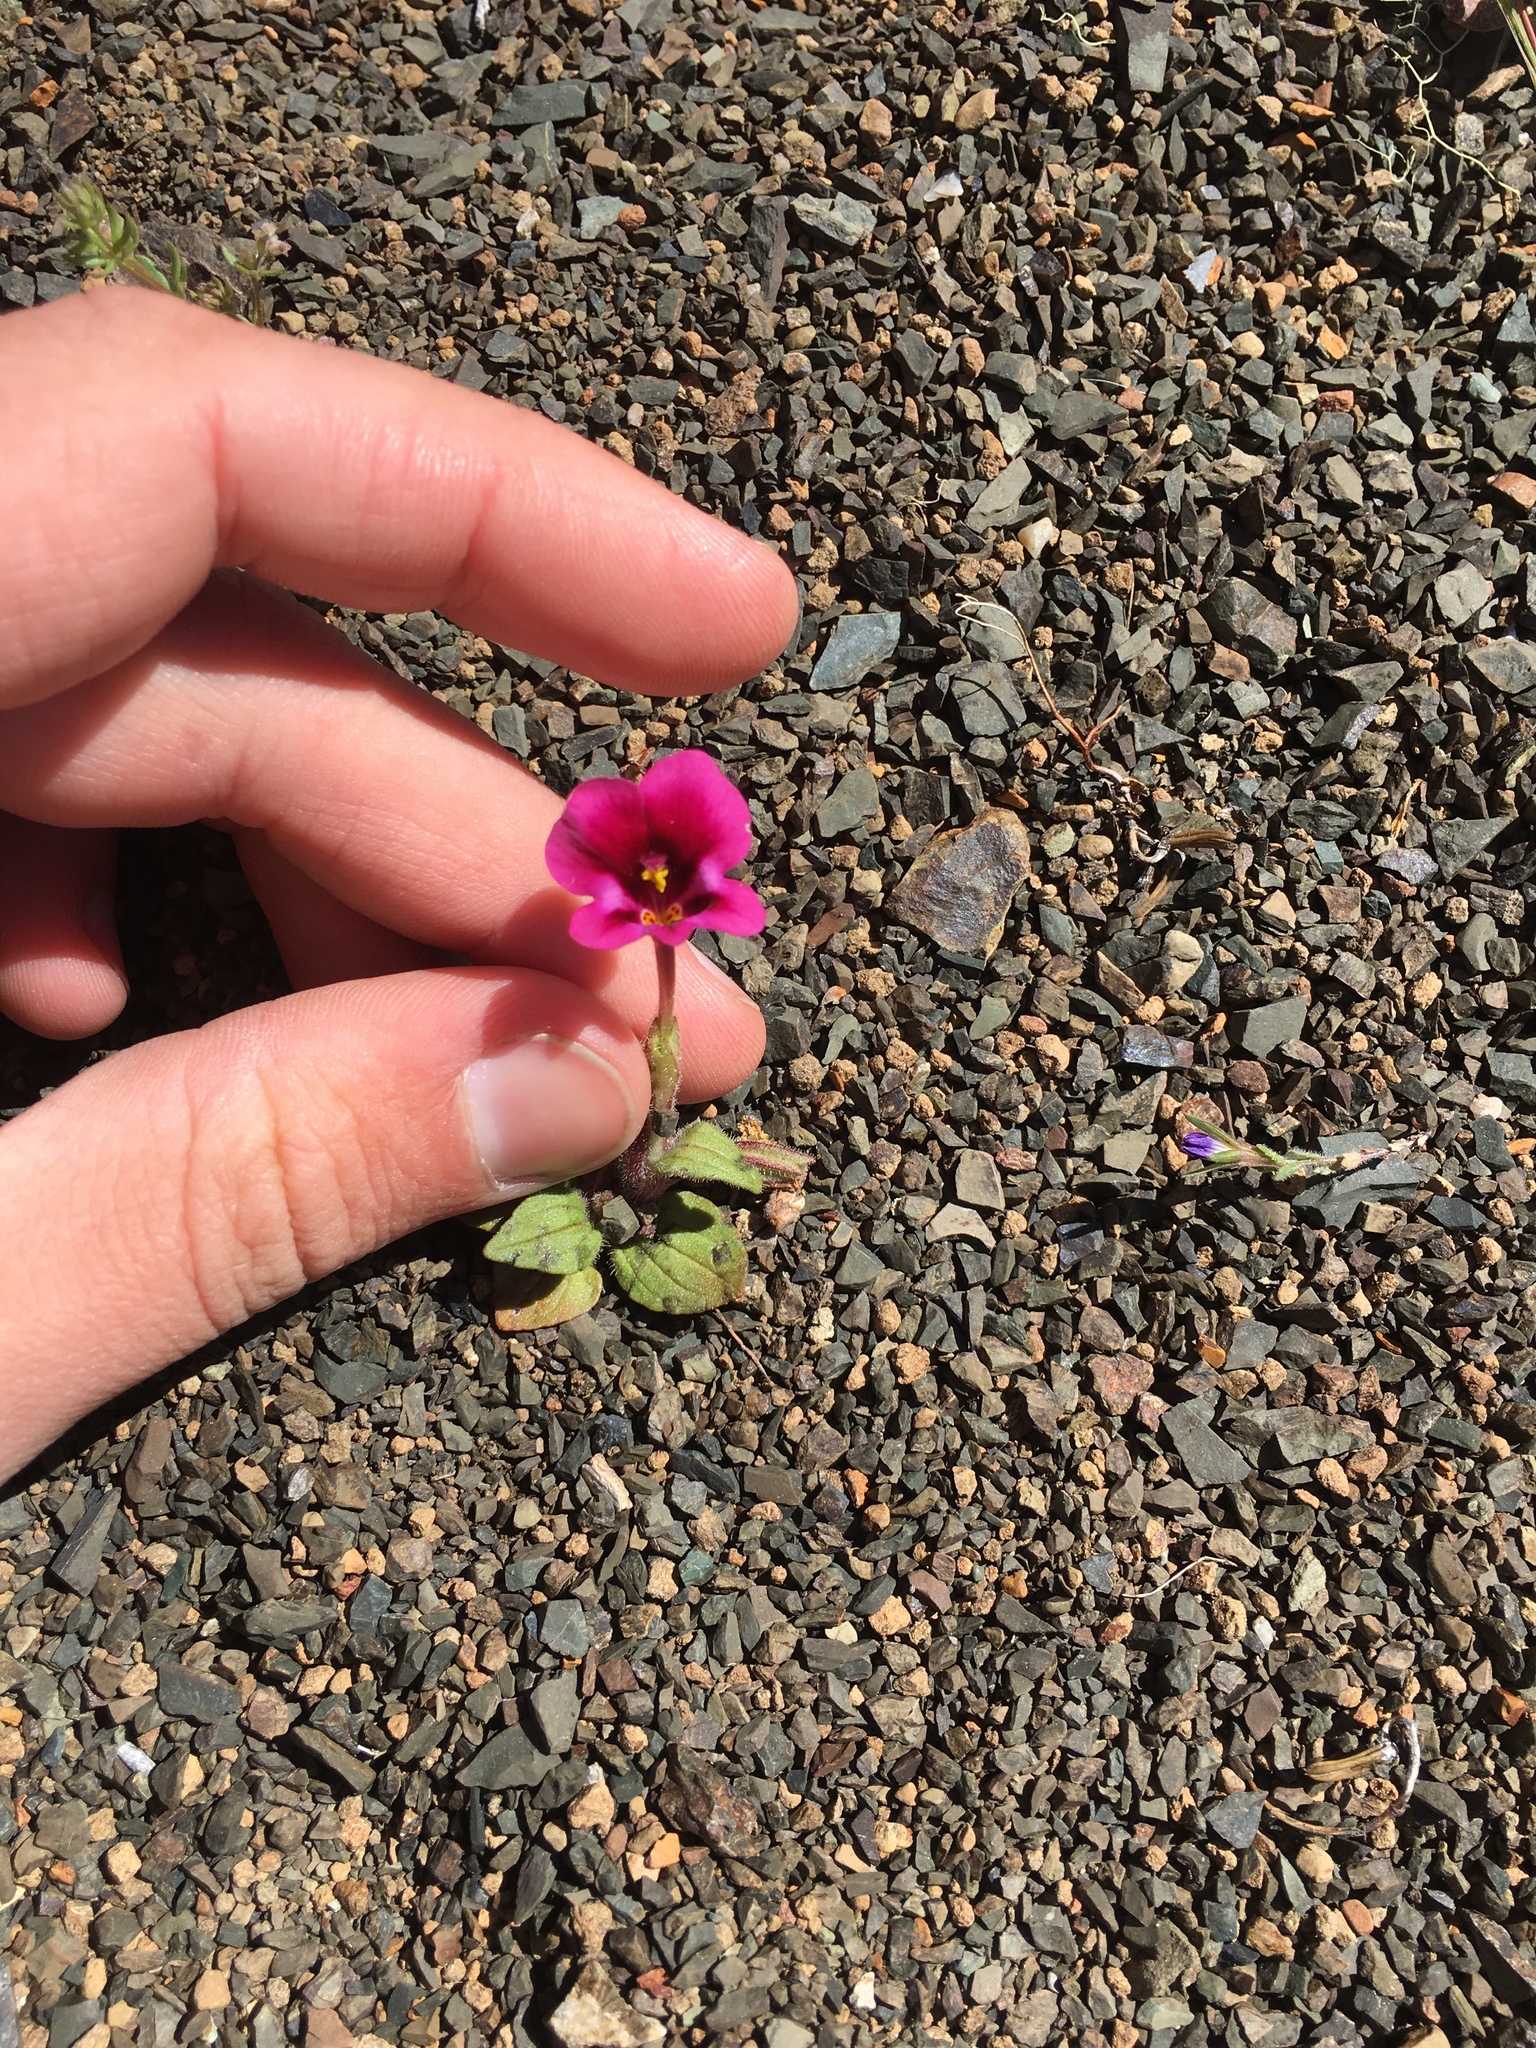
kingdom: Plantae
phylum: Tracheophyta
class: Magnoliopsida
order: Lamiales
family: Phrymaceae
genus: Diplacus
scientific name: Diplacus kelloggii
